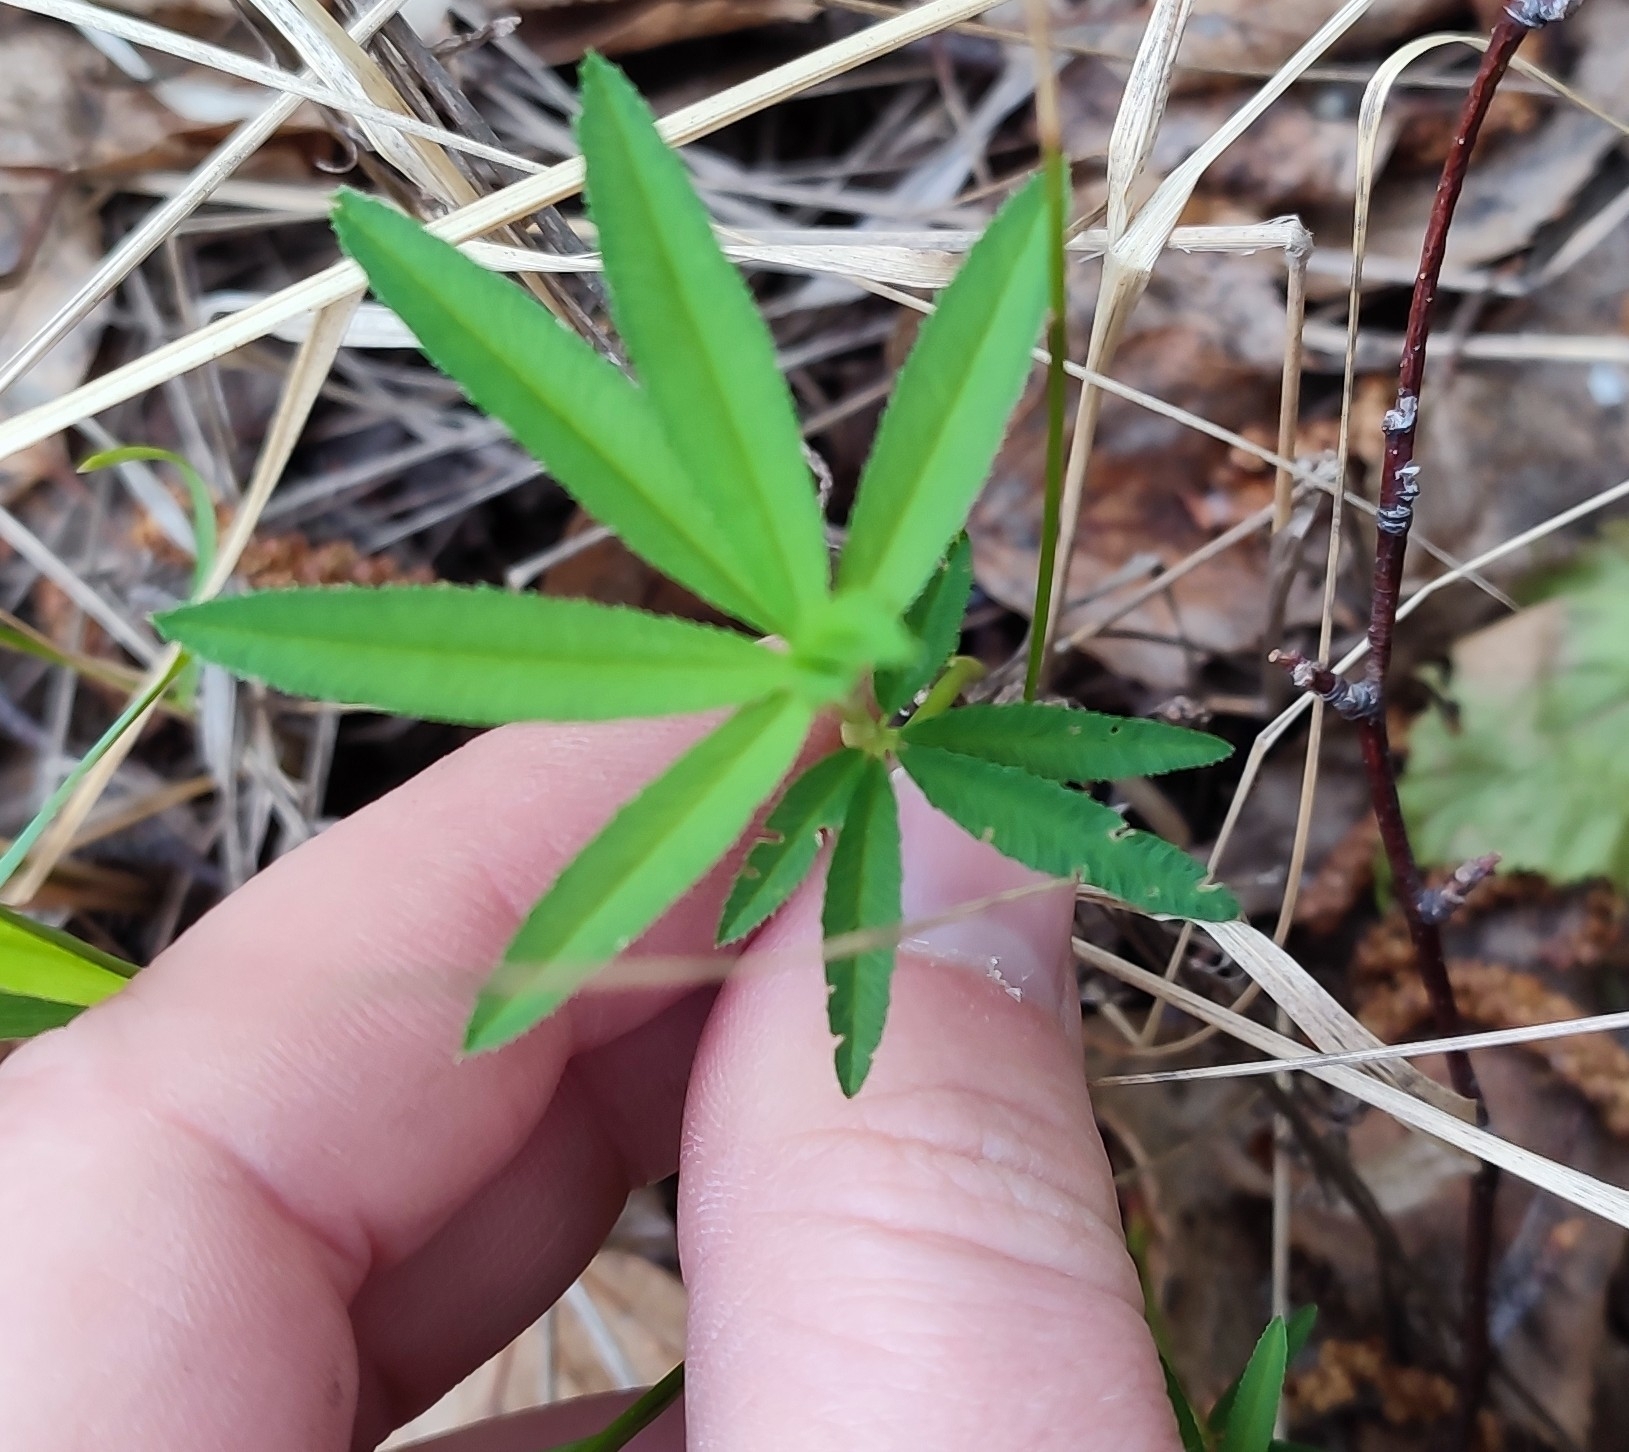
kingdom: Plantae
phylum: Tracheophyta
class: Magnoliopsida
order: Fabales
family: Fabaceae
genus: Trifolium
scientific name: Trifolium lupinaster
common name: Lupine clover
